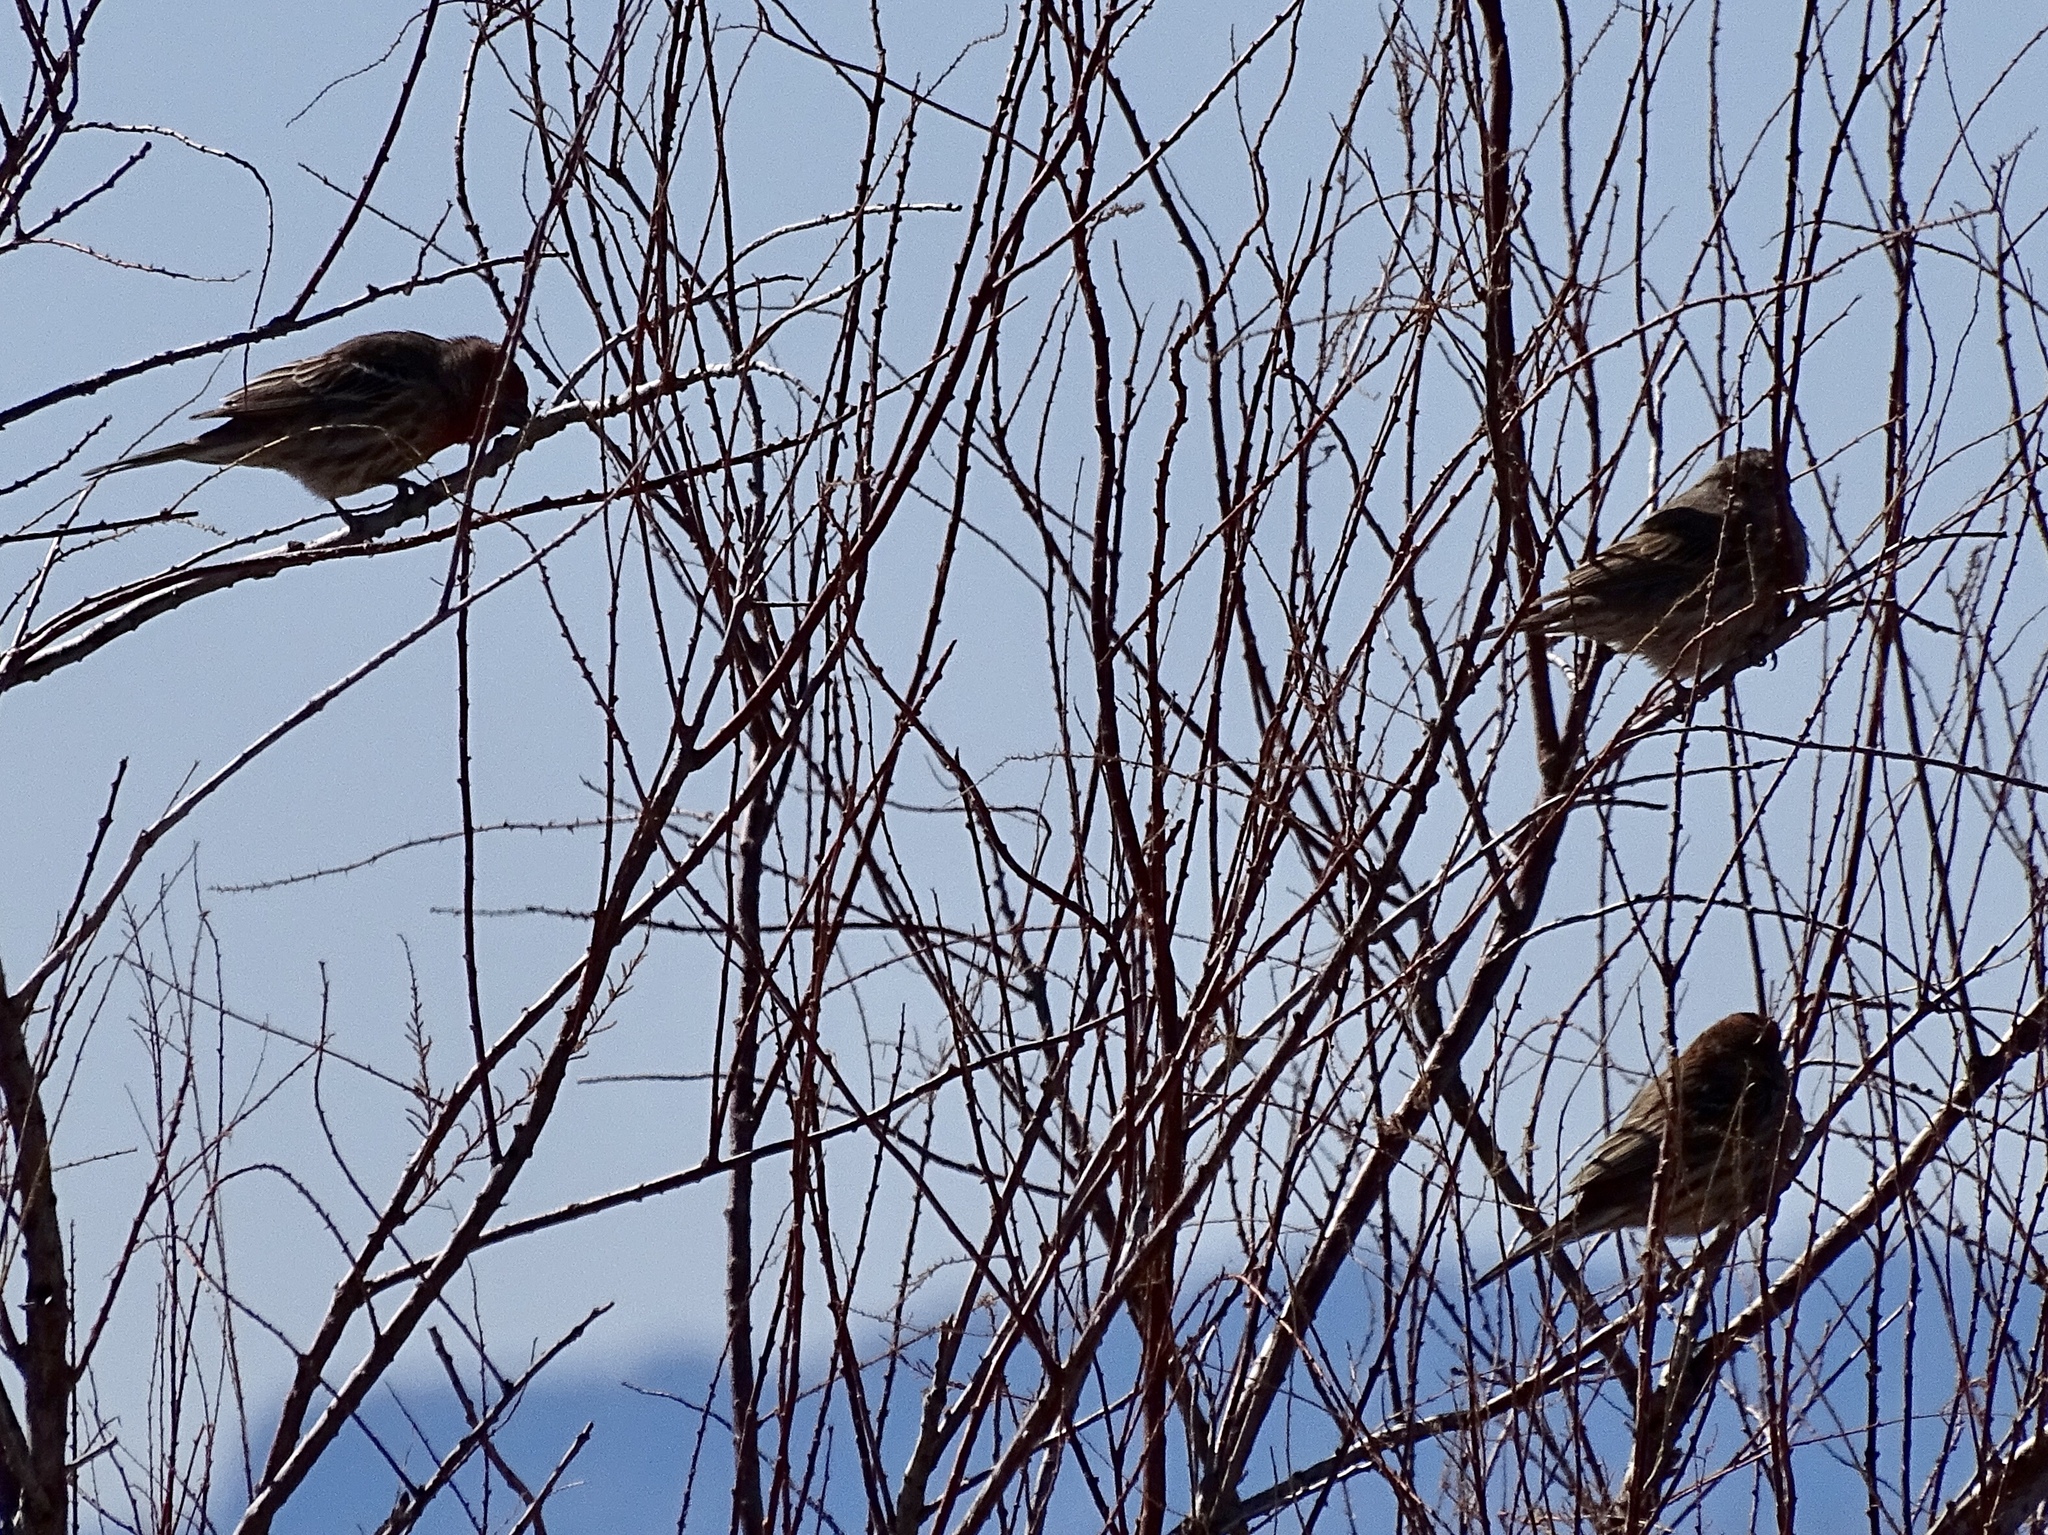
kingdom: Animalia
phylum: Chordata
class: Aves
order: Passeriformes
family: Fringillidae
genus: Haemorhous
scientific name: Haemorhous mexicanus
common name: House finch
